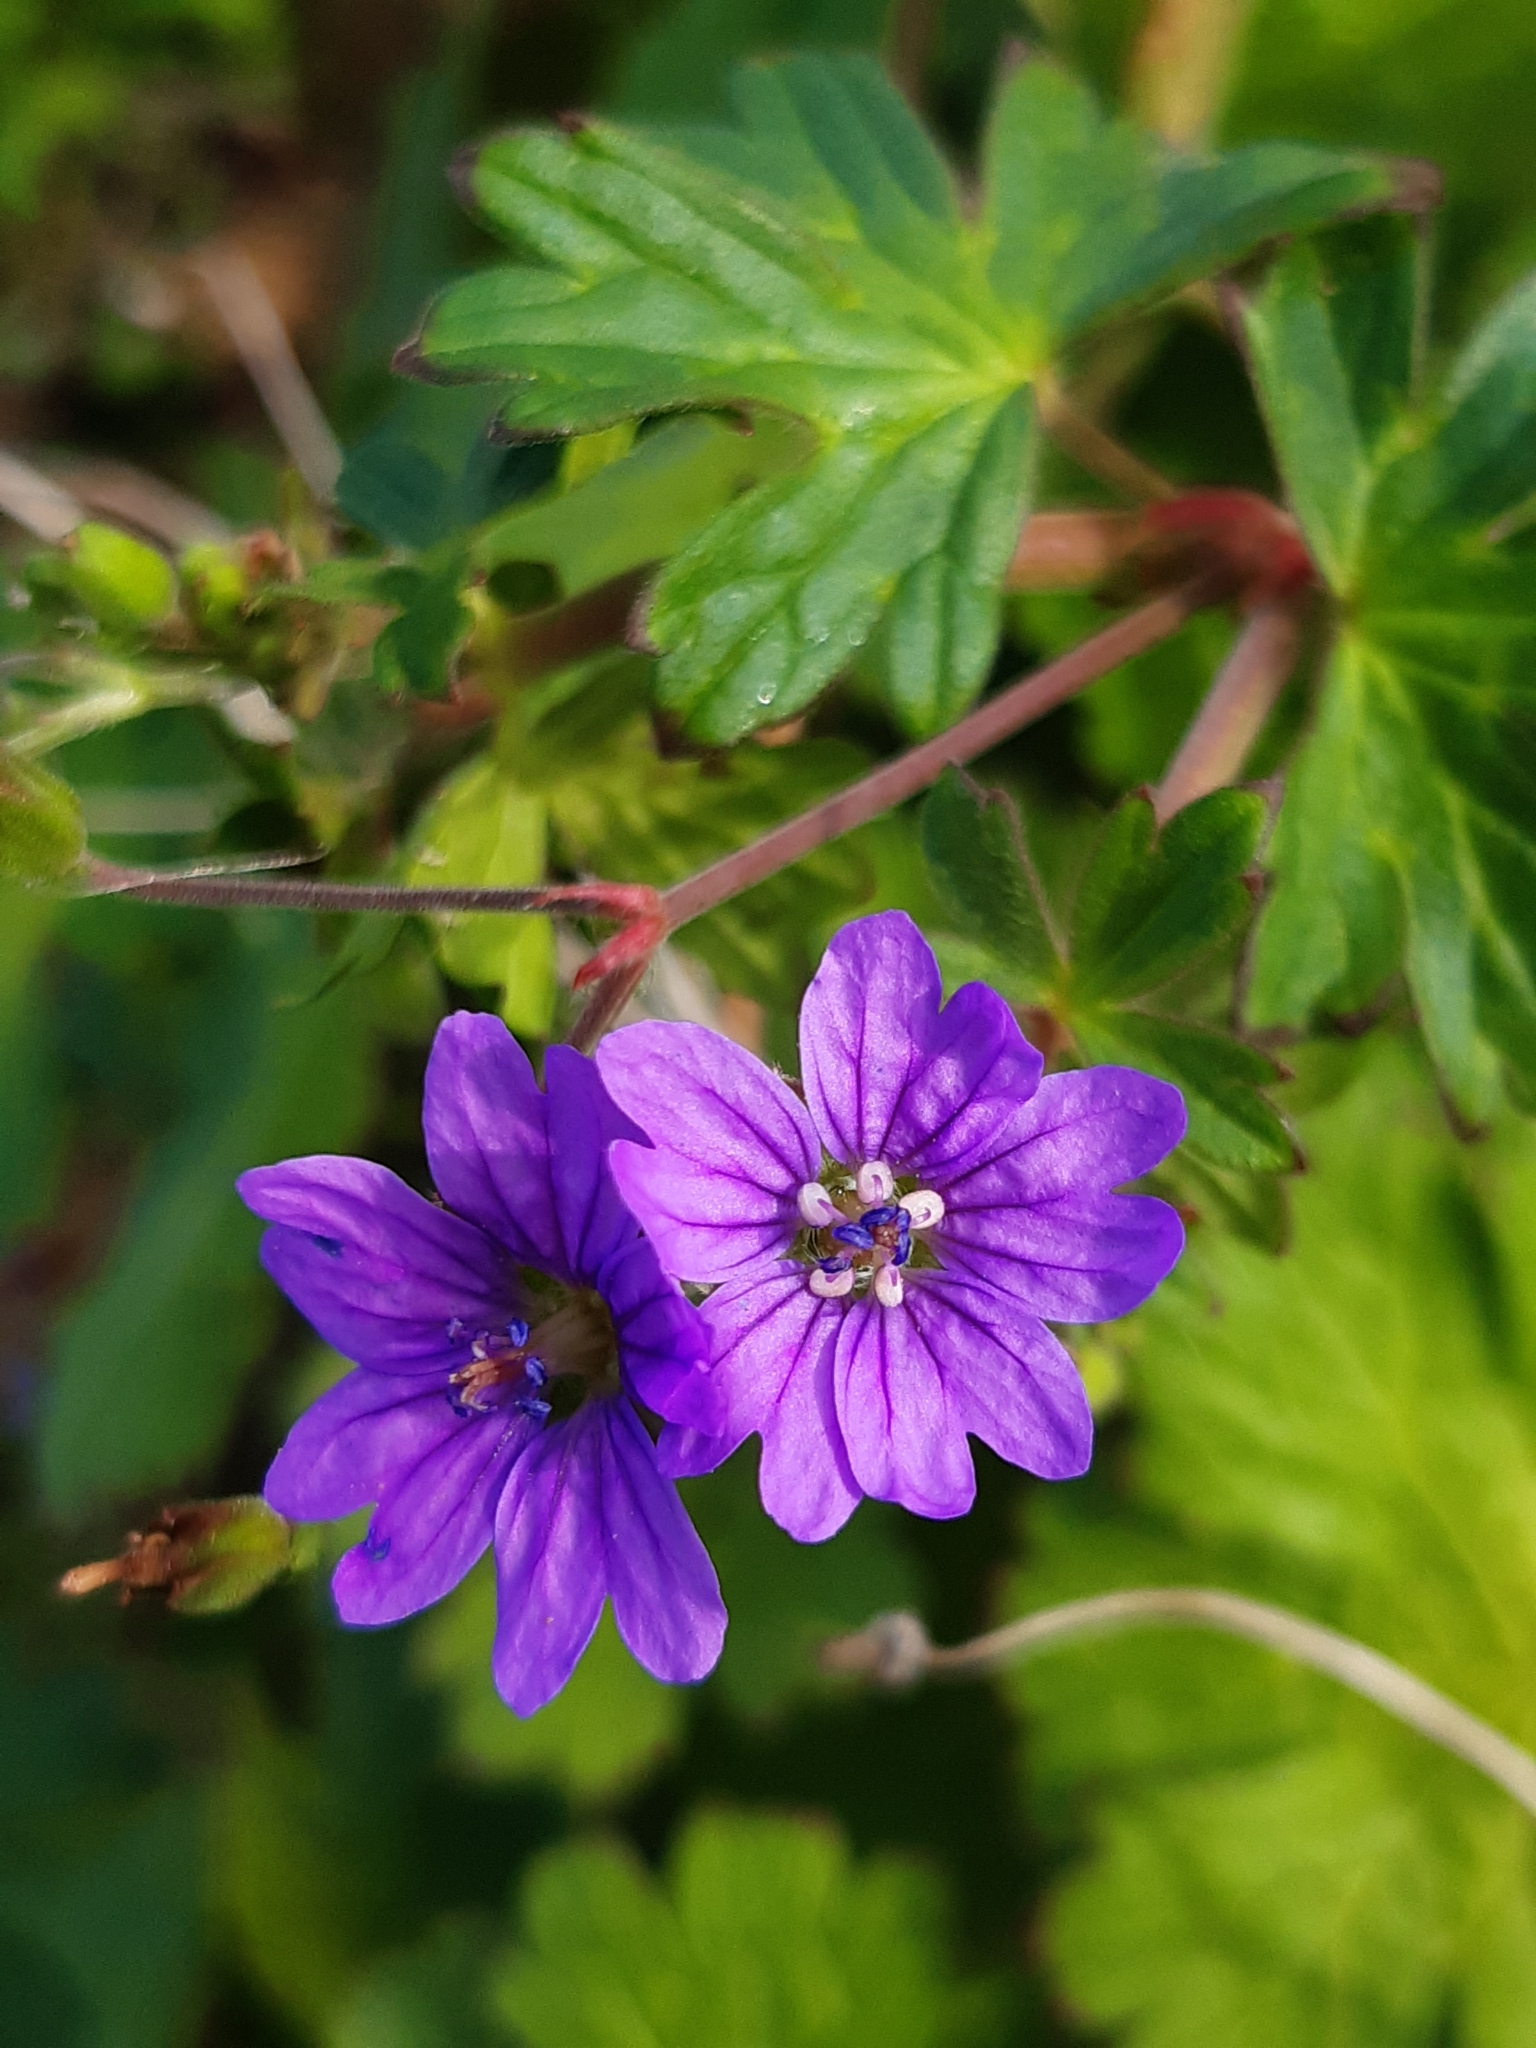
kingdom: Plantae
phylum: Tracheophyta
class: Magnoliopsida
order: Geraniales
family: Geraniaceae
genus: Geranium
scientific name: Geranium pyrenaicum
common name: Hedgerow crane's-bill
